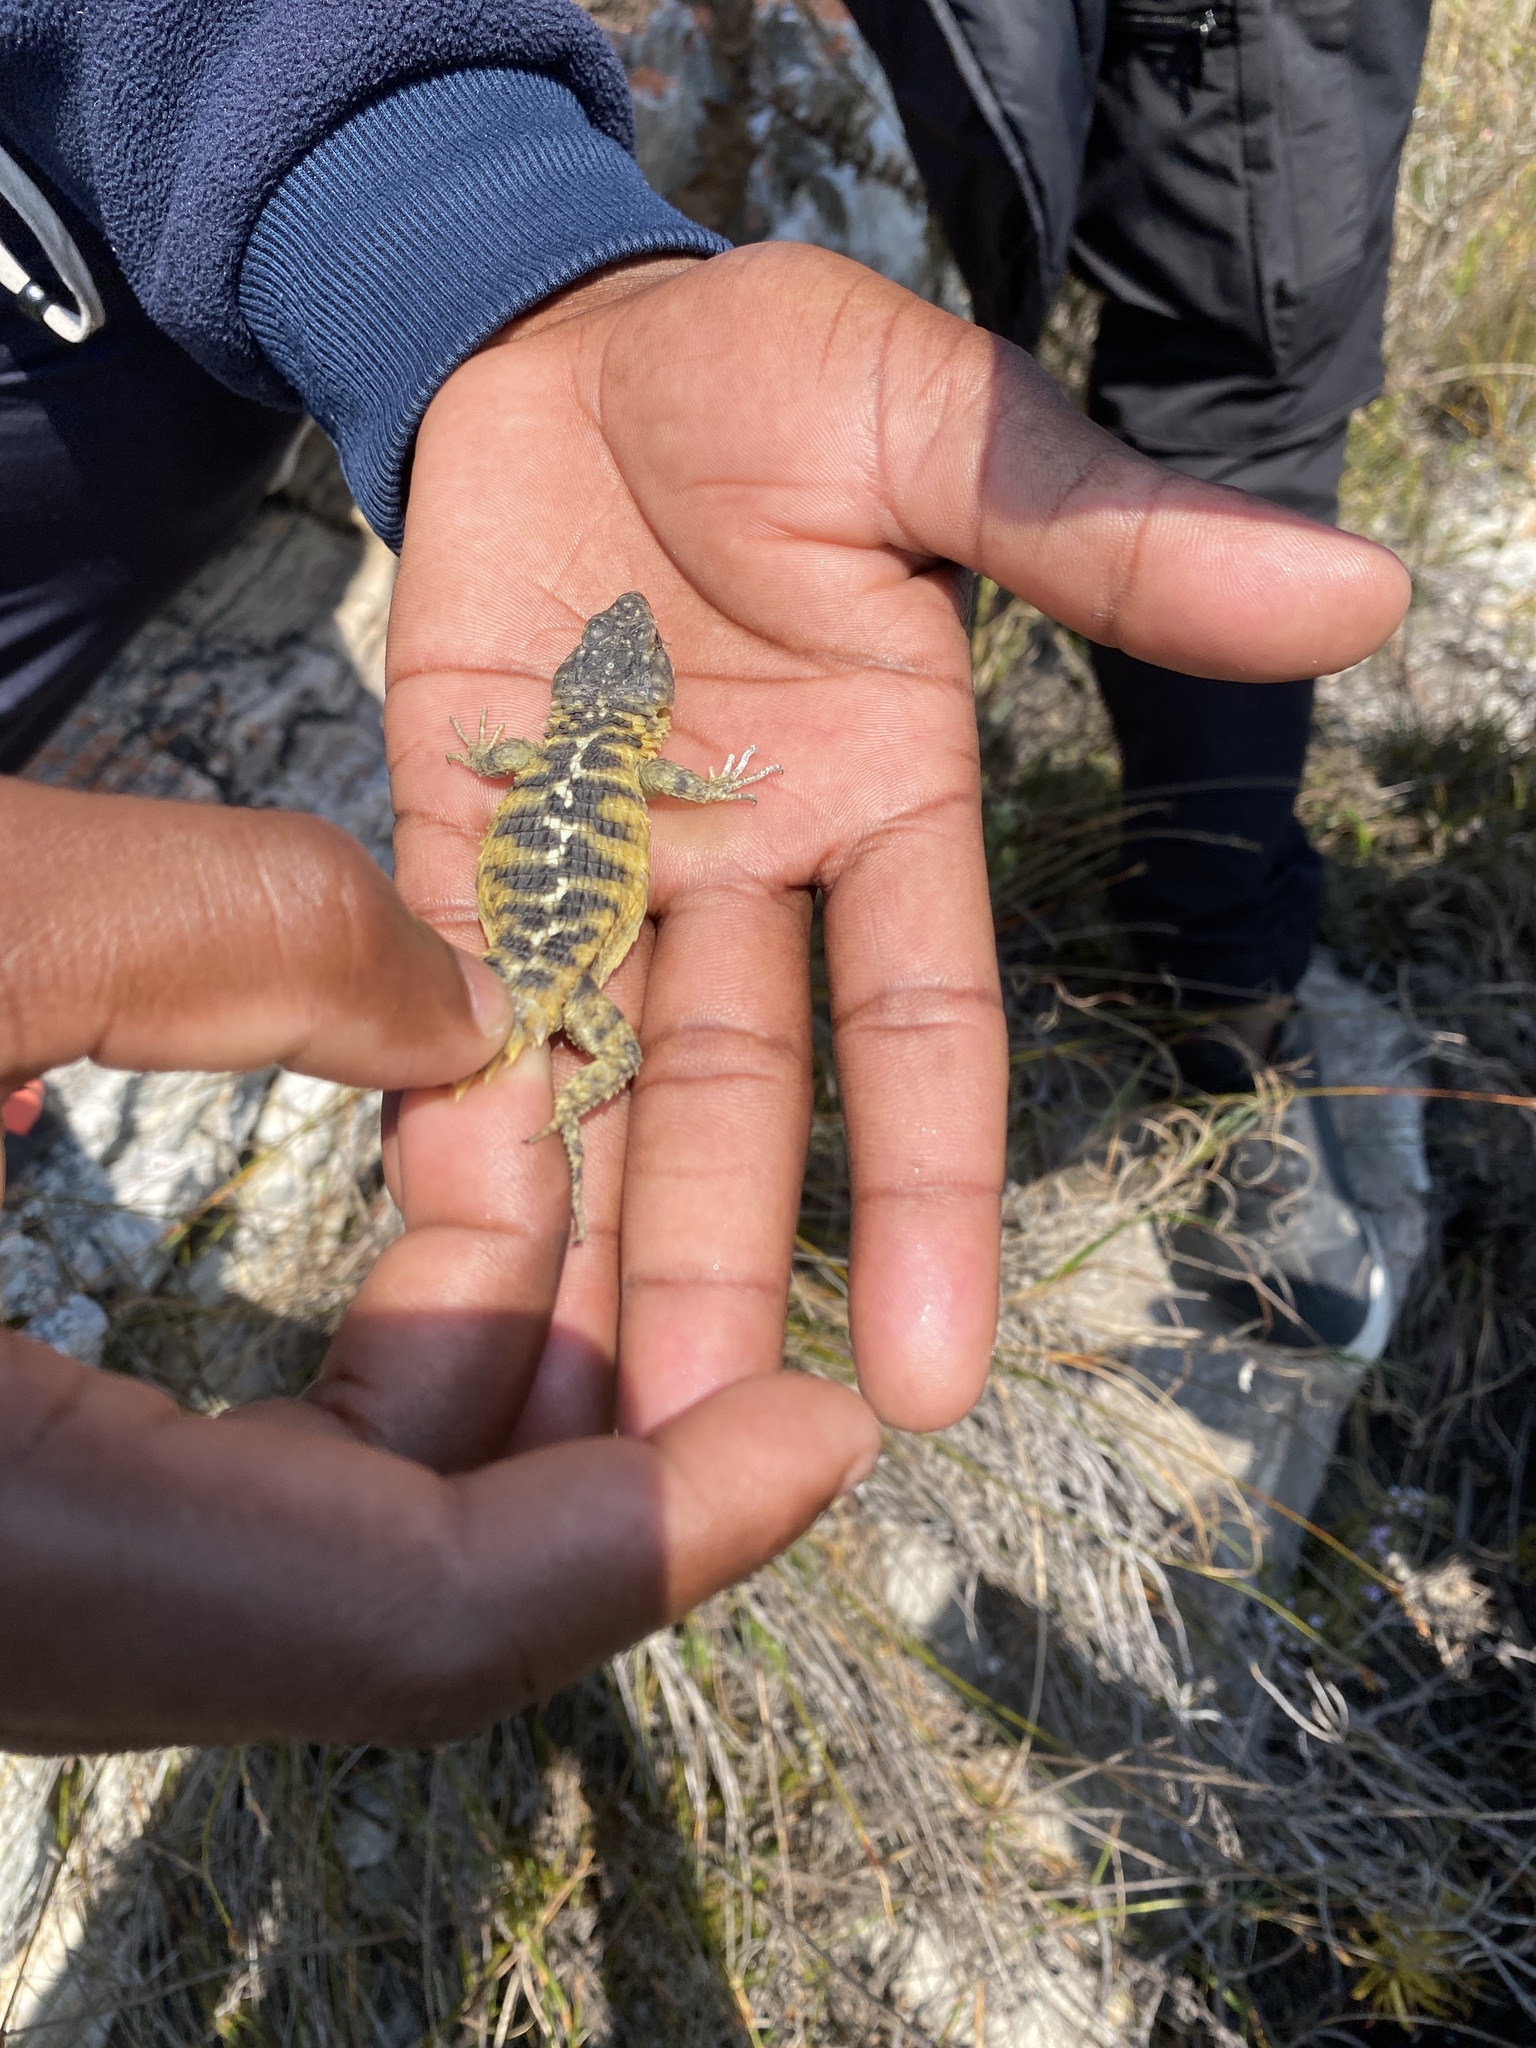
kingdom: Animalia
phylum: Chordata
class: Squamata
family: Cordylidae
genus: Cordylus
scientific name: Cordylus cordylus
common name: Cape girdled lizard
